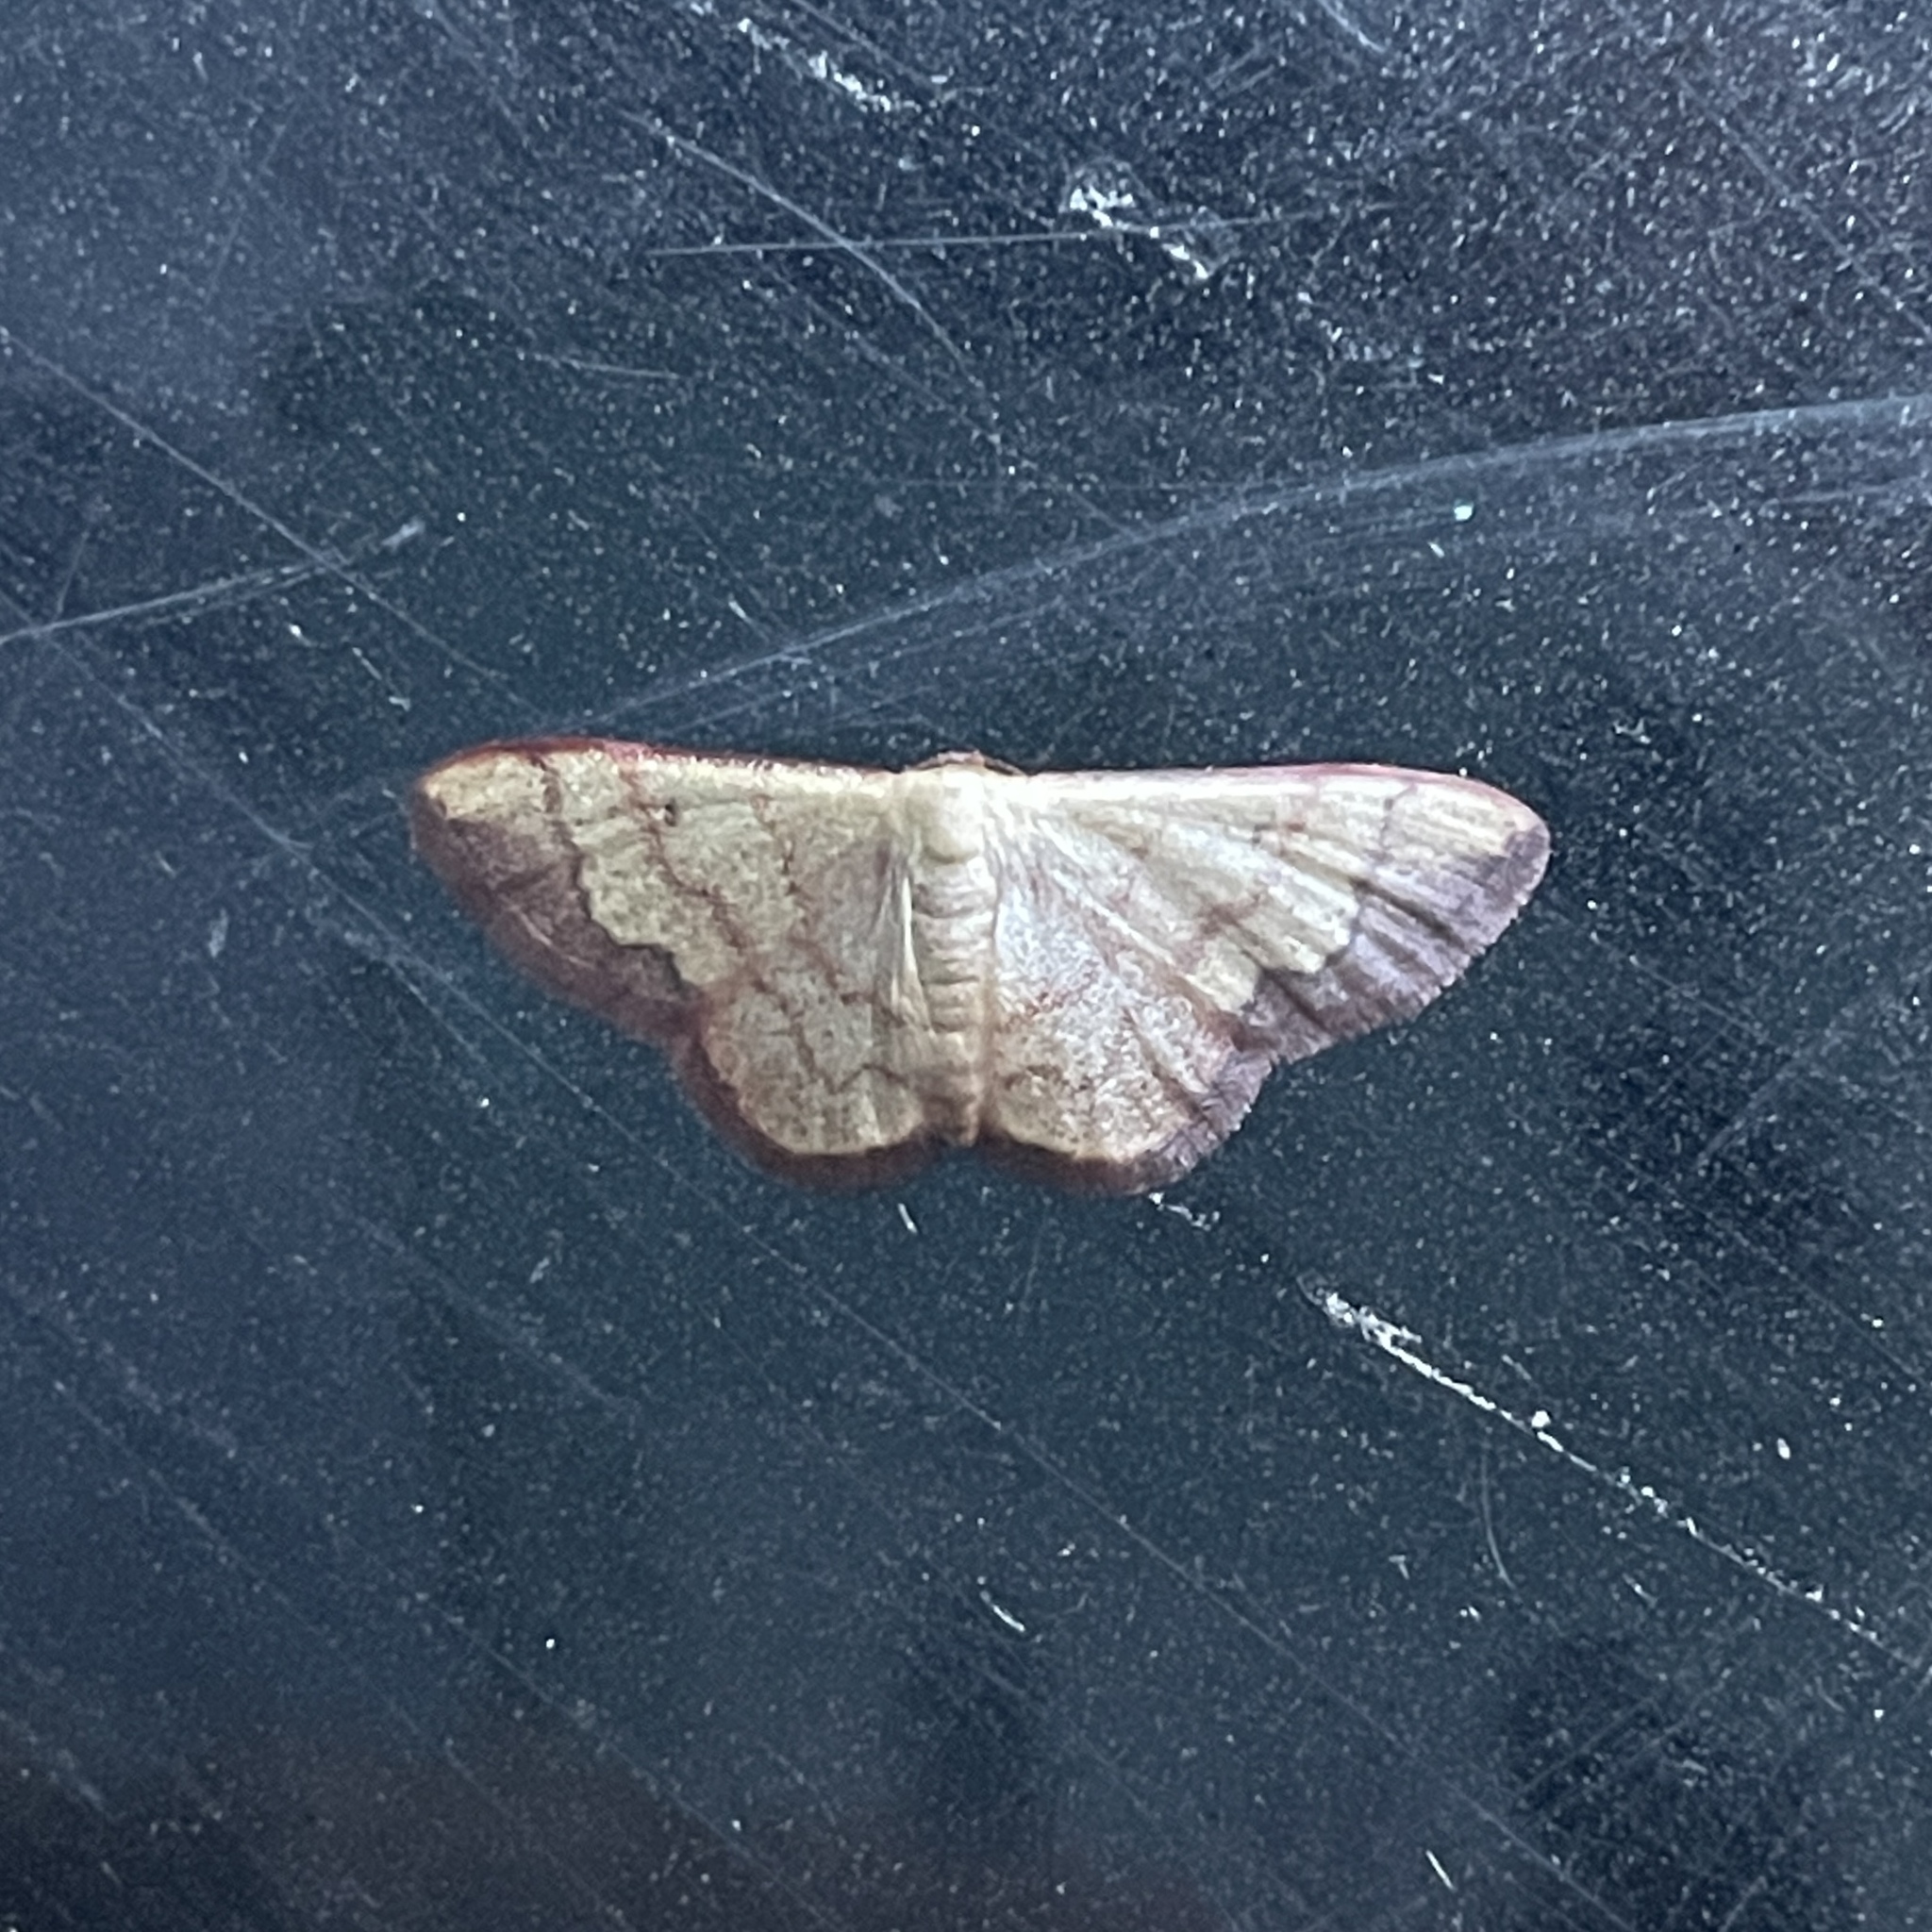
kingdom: Animalia
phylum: Arthropoda
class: Insecta
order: Lepidoptera
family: Geometridae
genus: Idaea
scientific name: Idaea rufulata
